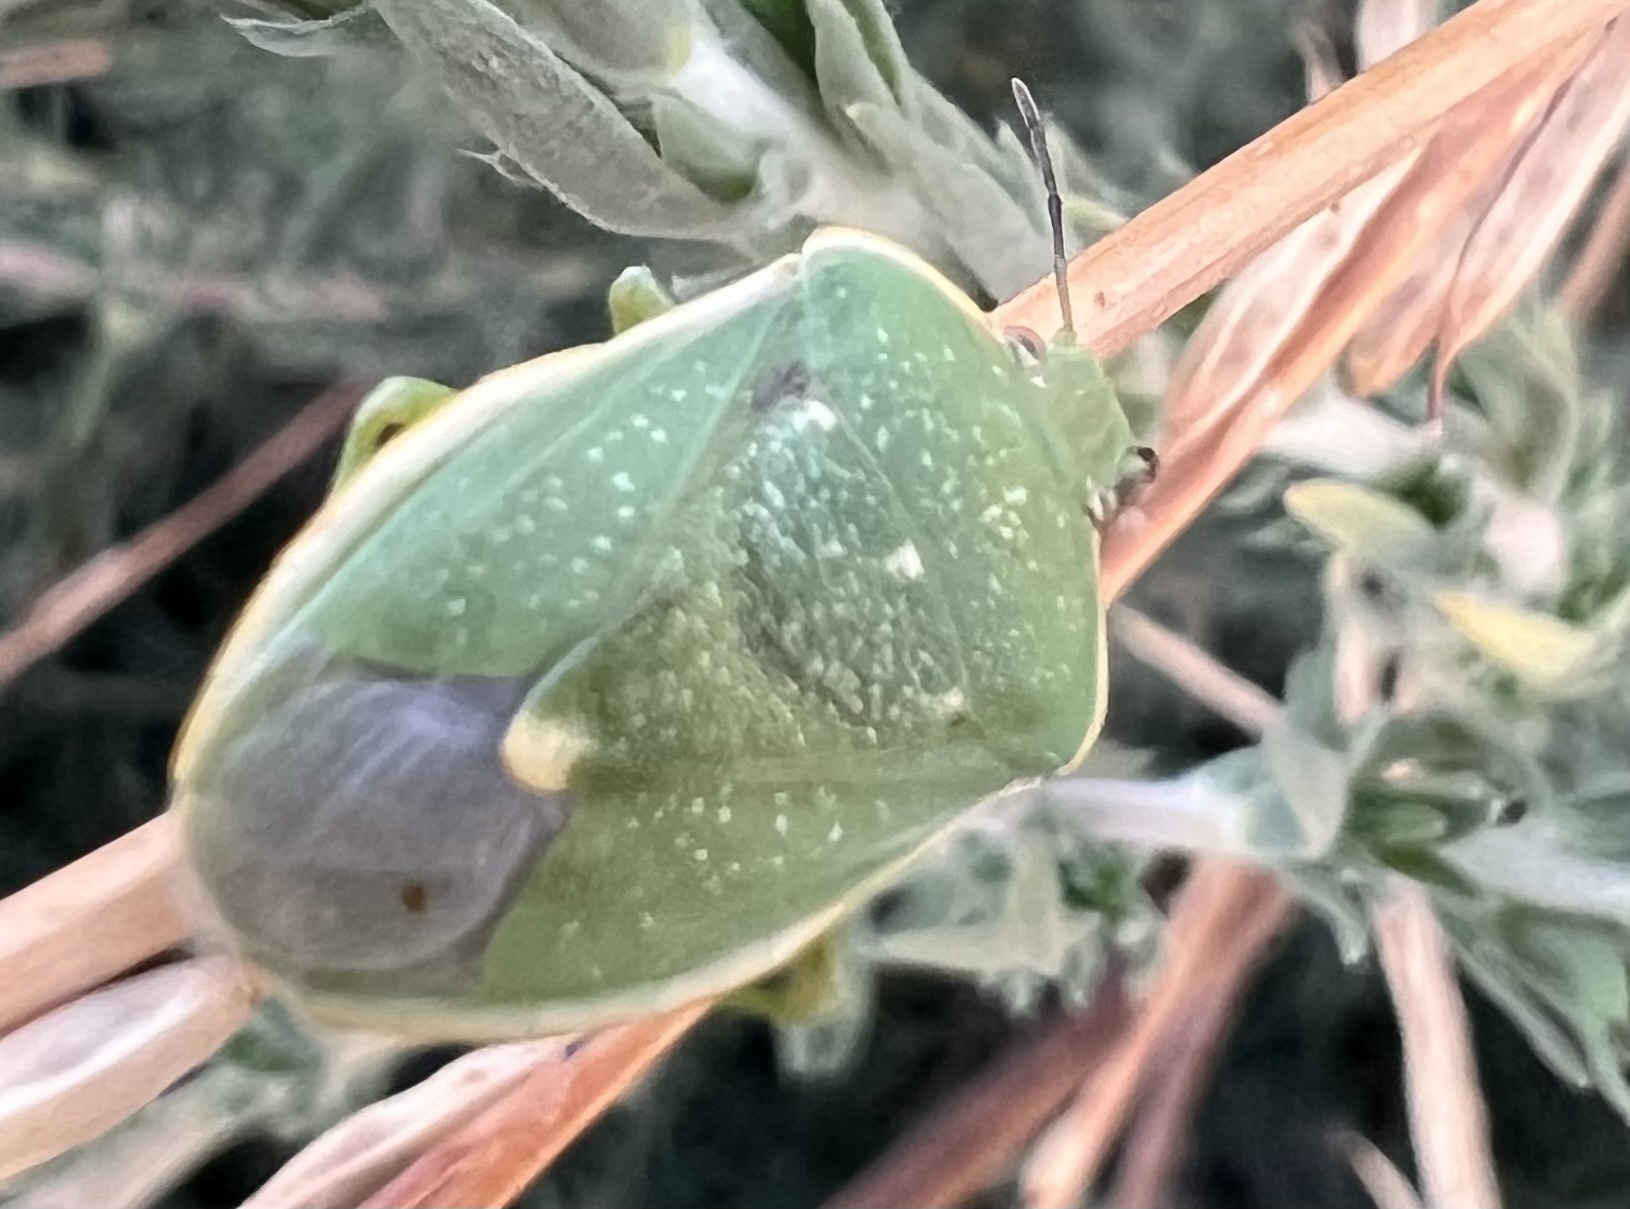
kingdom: Animalia
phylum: Arthropoda
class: Insecta
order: Hemiptera
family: Pentatomidae
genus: Chlorochroa
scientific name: Chlorochroa uhleri
